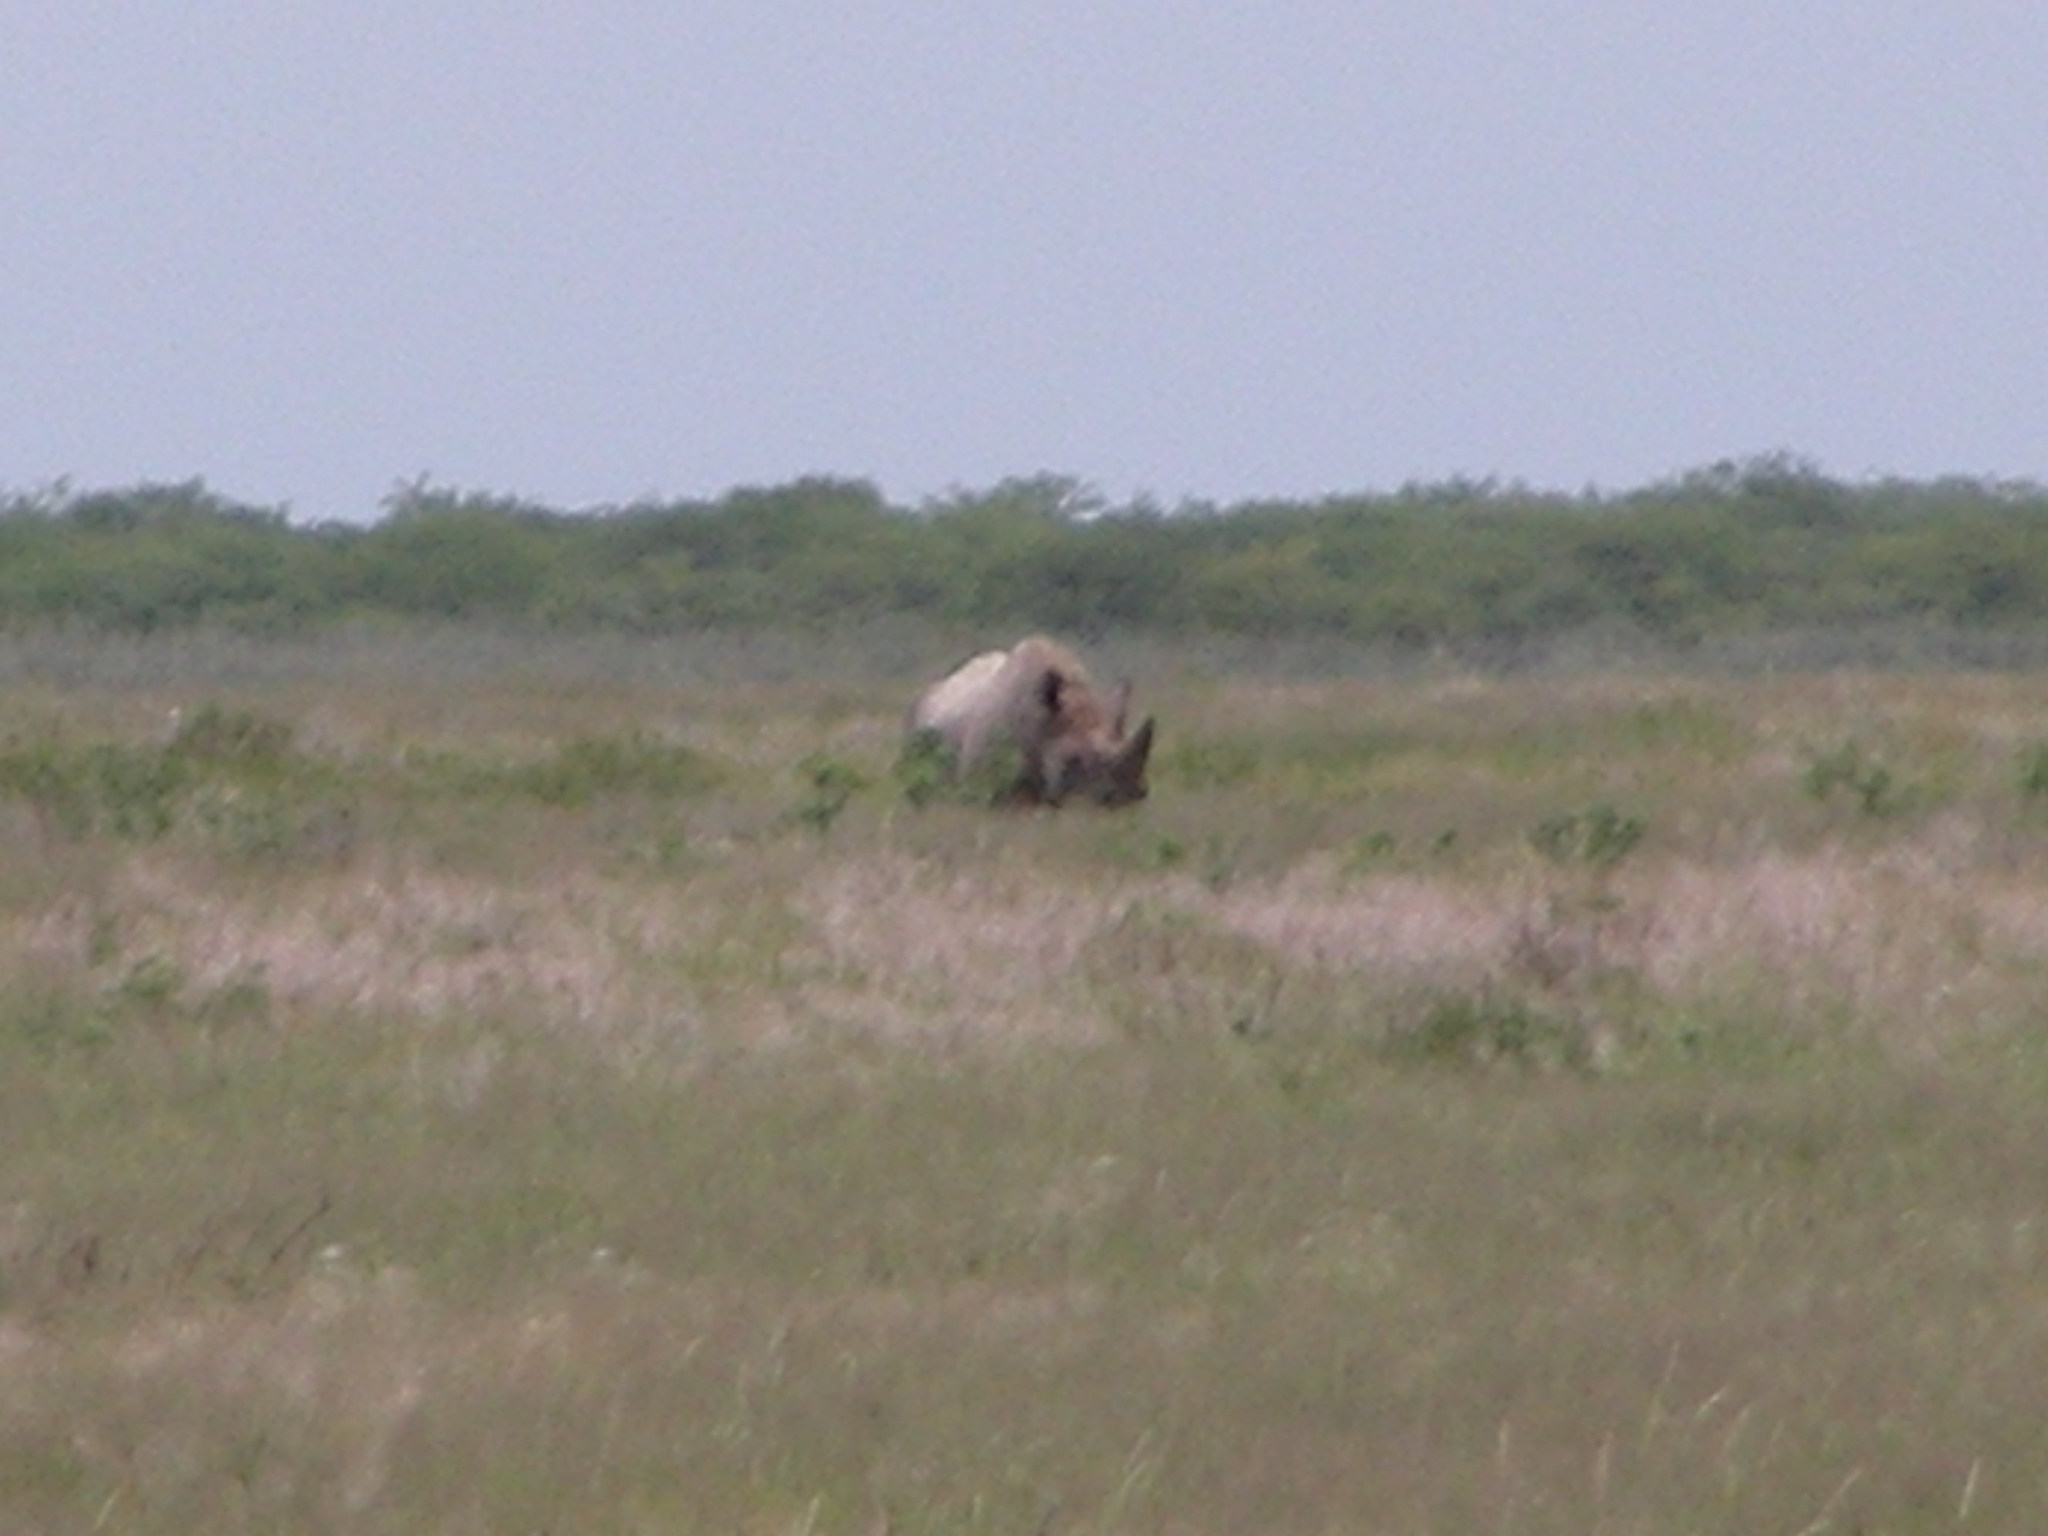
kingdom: Animalia
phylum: Chordata
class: Mammalia
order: Perissodactyla
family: Rhinocerotidae
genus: Diceros
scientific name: Diceros bicornis
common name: Black rhinoceros
